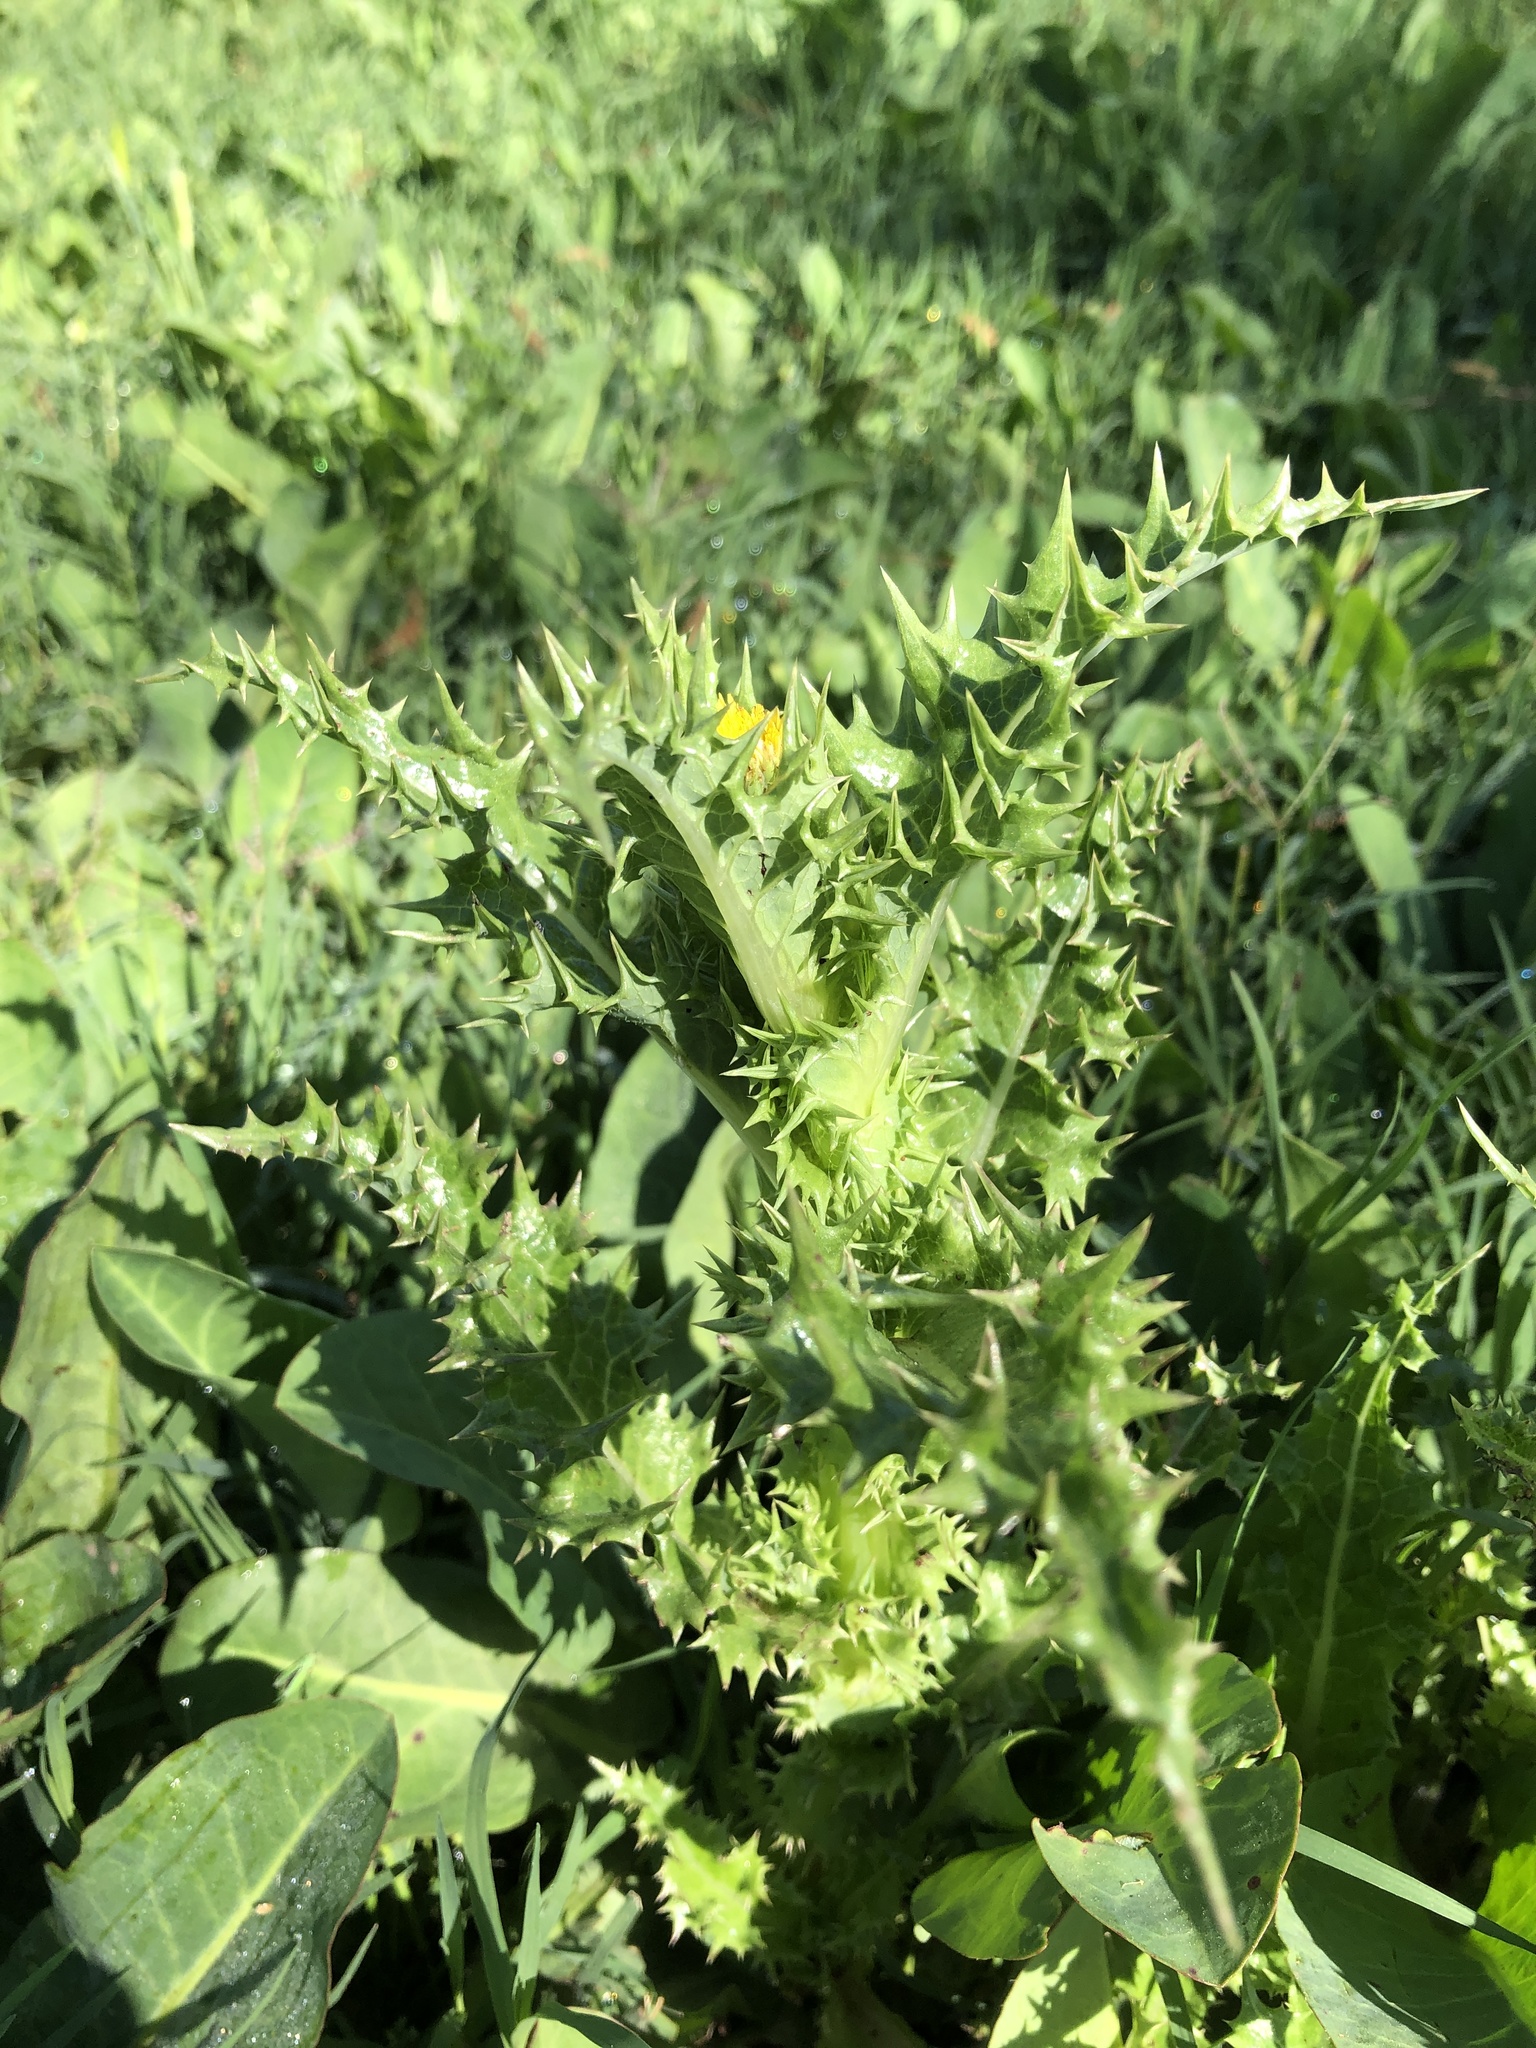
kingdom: Plantae
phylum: Tracheophyta
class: Magnoliopsida
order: Asterales
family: Asteraceae
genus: Sonchus
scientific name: Sonchus asper
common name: Prickly sow-thistle
